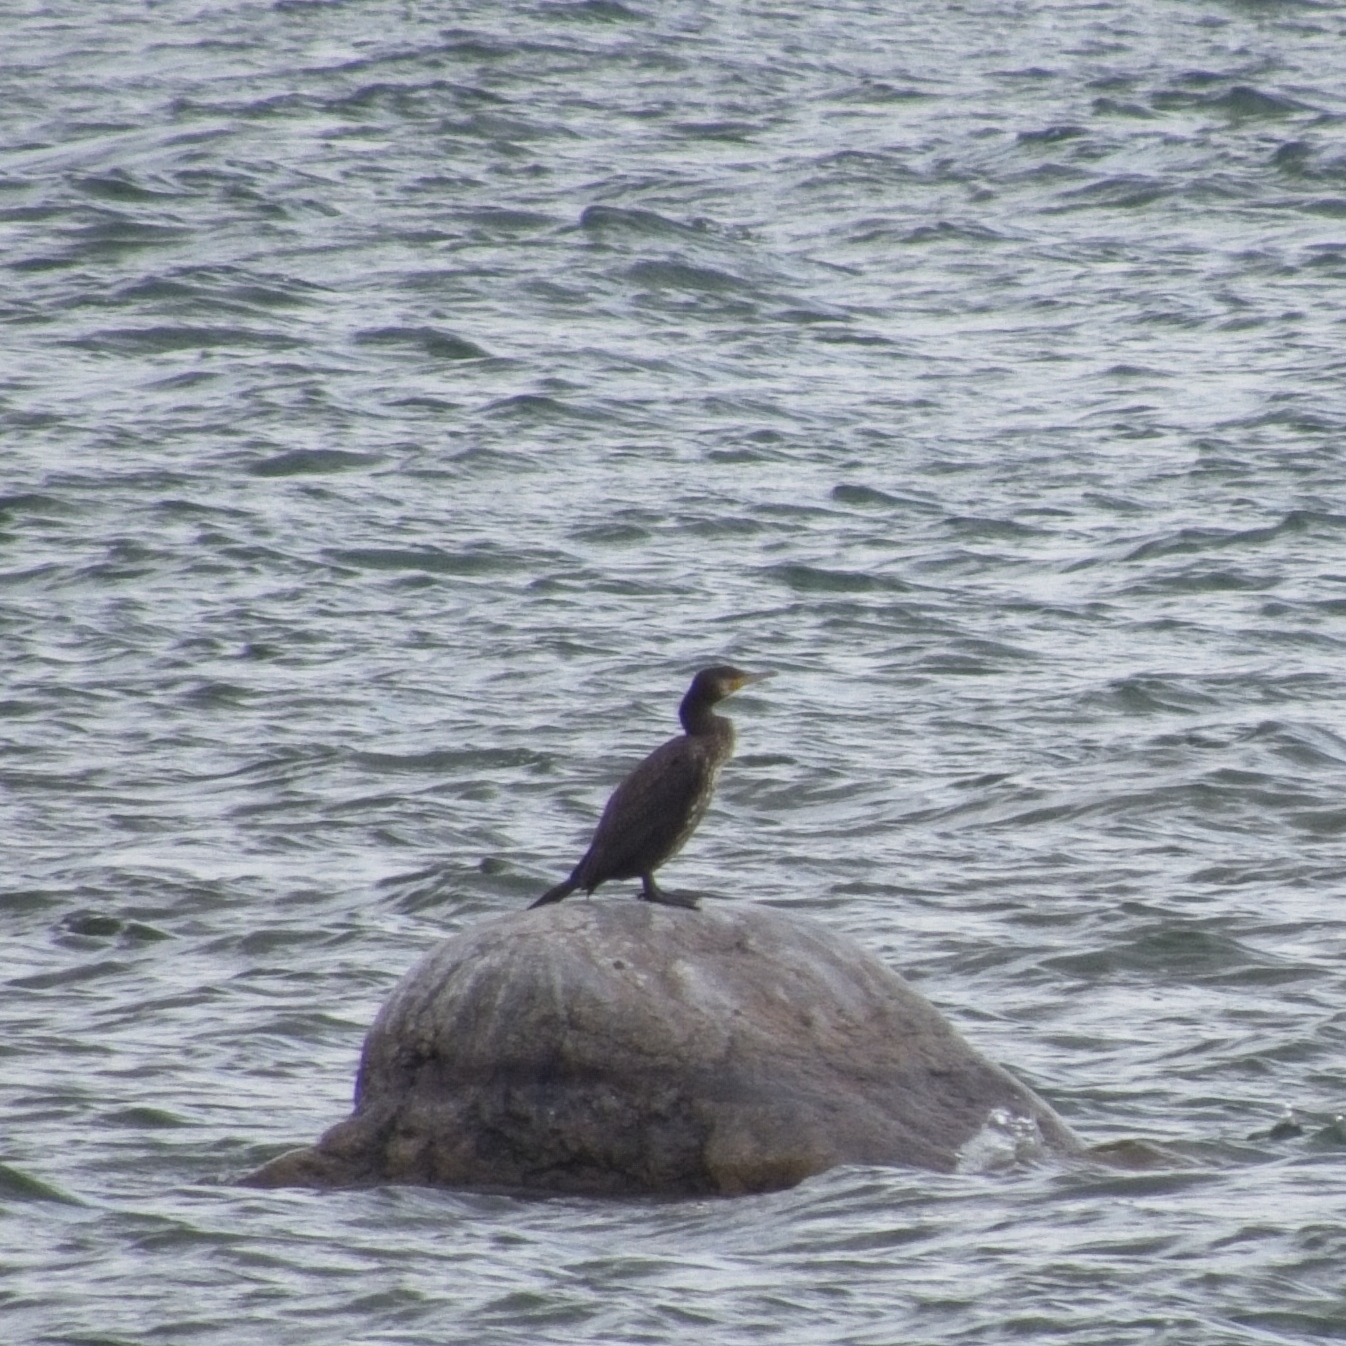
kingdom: Animalia
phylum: Chordata
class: Aves
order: Suliformes
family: Phalacrocoracidae
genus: Phalacrocorax
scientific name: Phalacrocorax carbo
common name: Great cormorant
